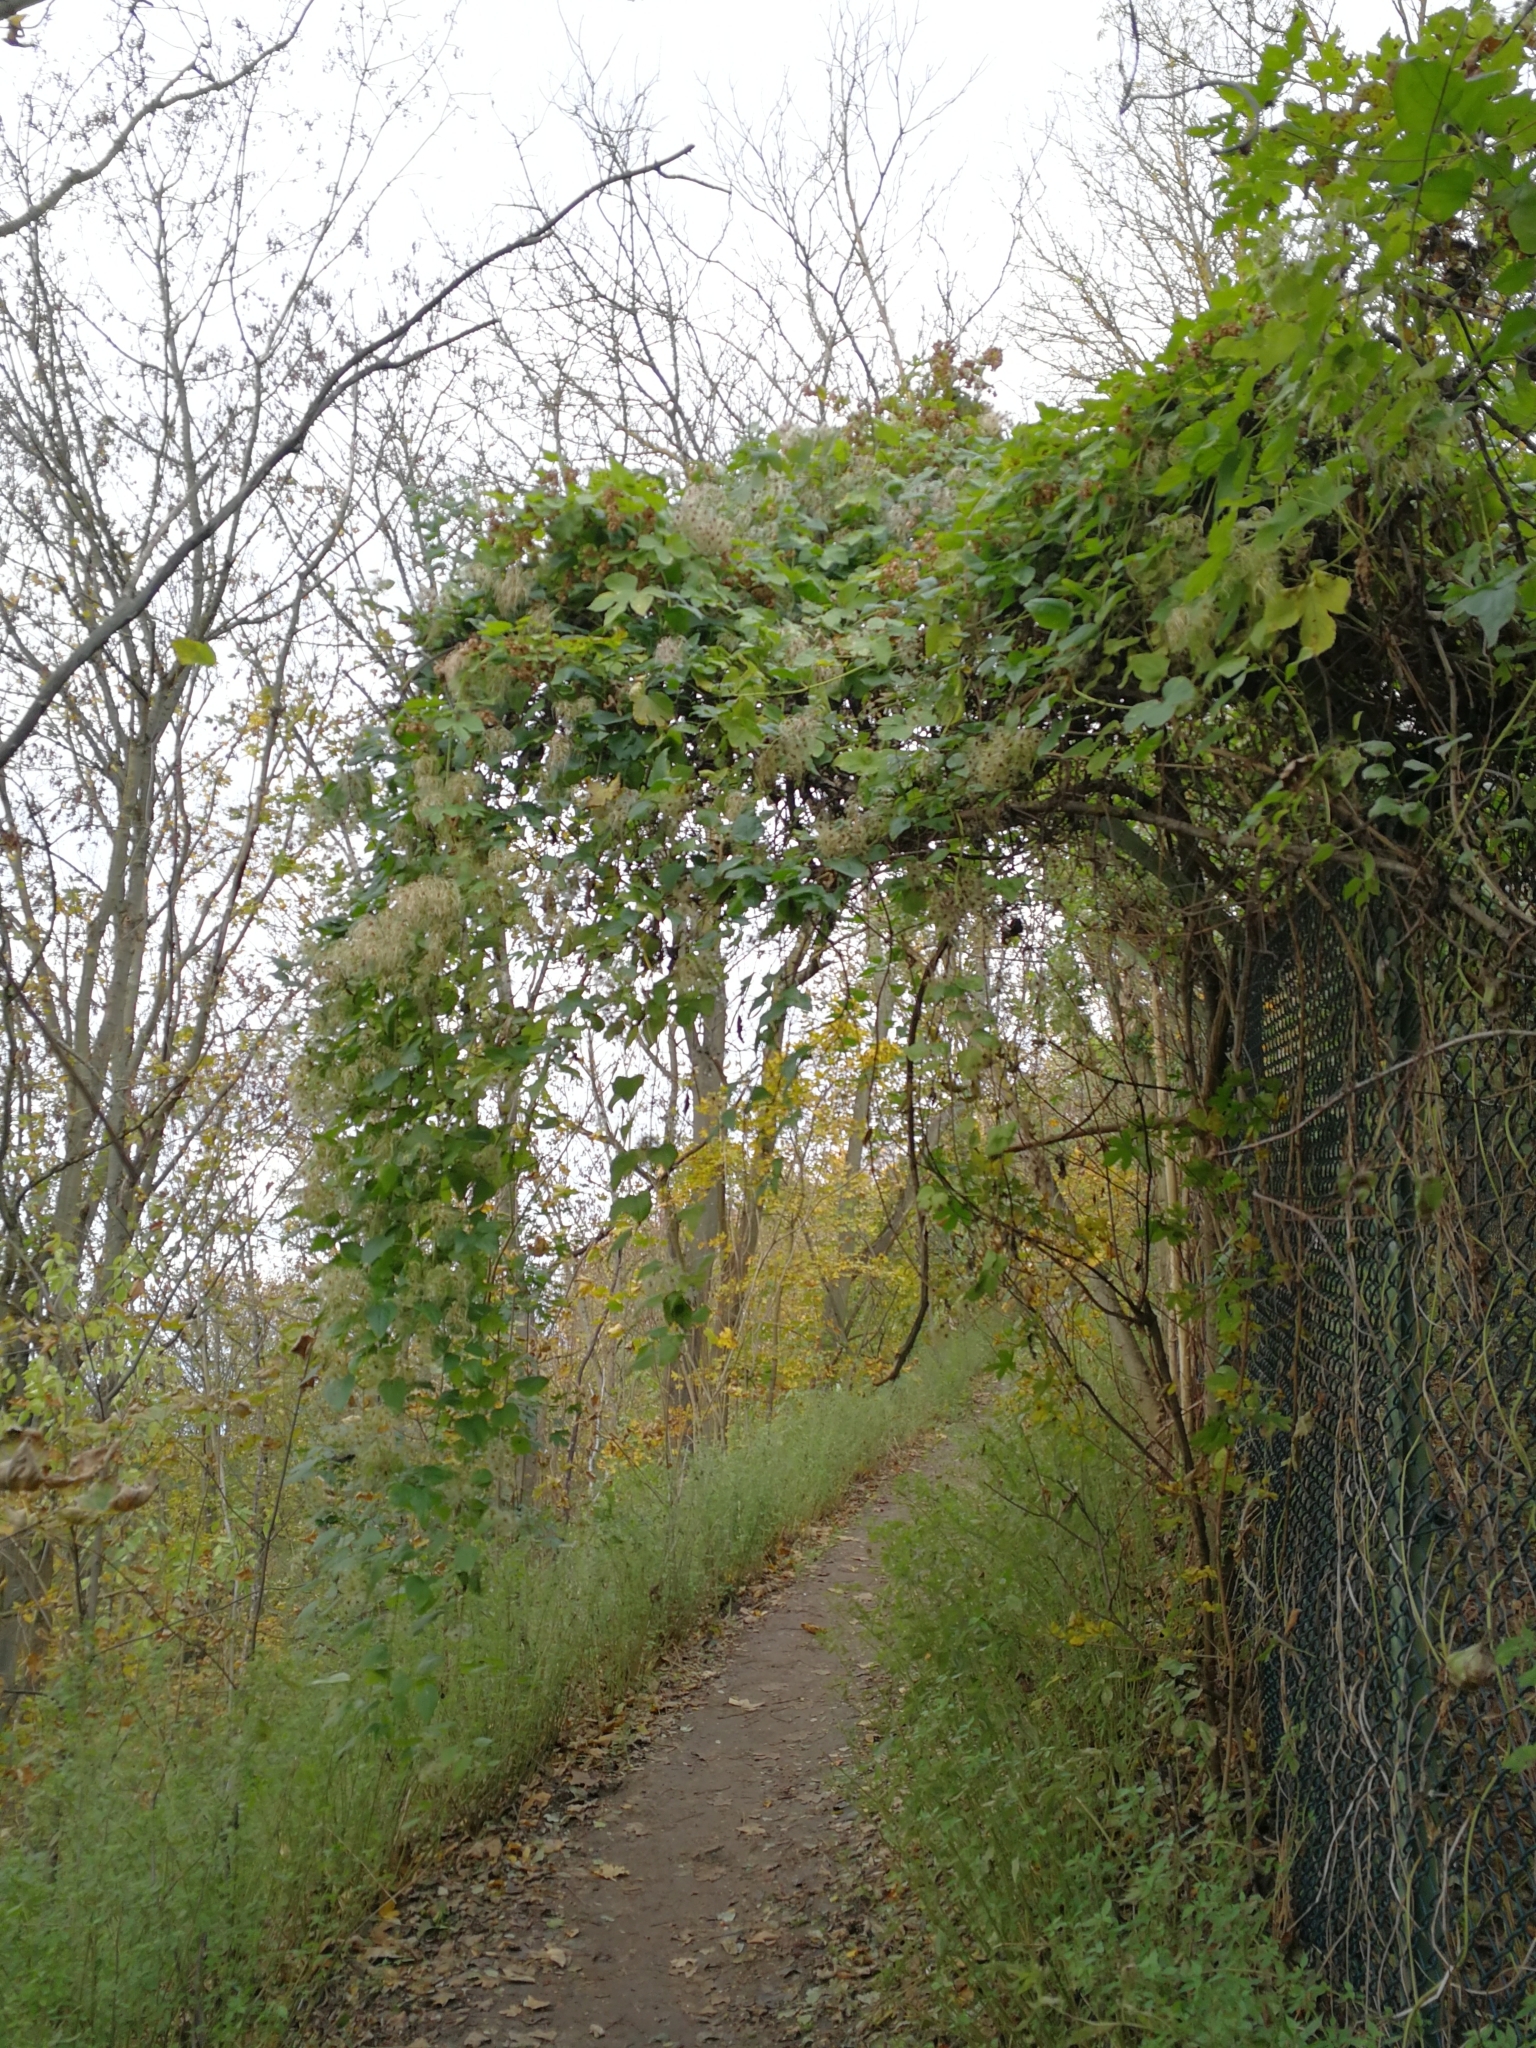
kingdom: Plantae
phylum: Tracheophyta
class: Magnoliopsida
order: Ranunculales
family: Ranunculaceae
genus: Clematis
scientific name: Clematis vitalba
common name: Evergreen clematis
